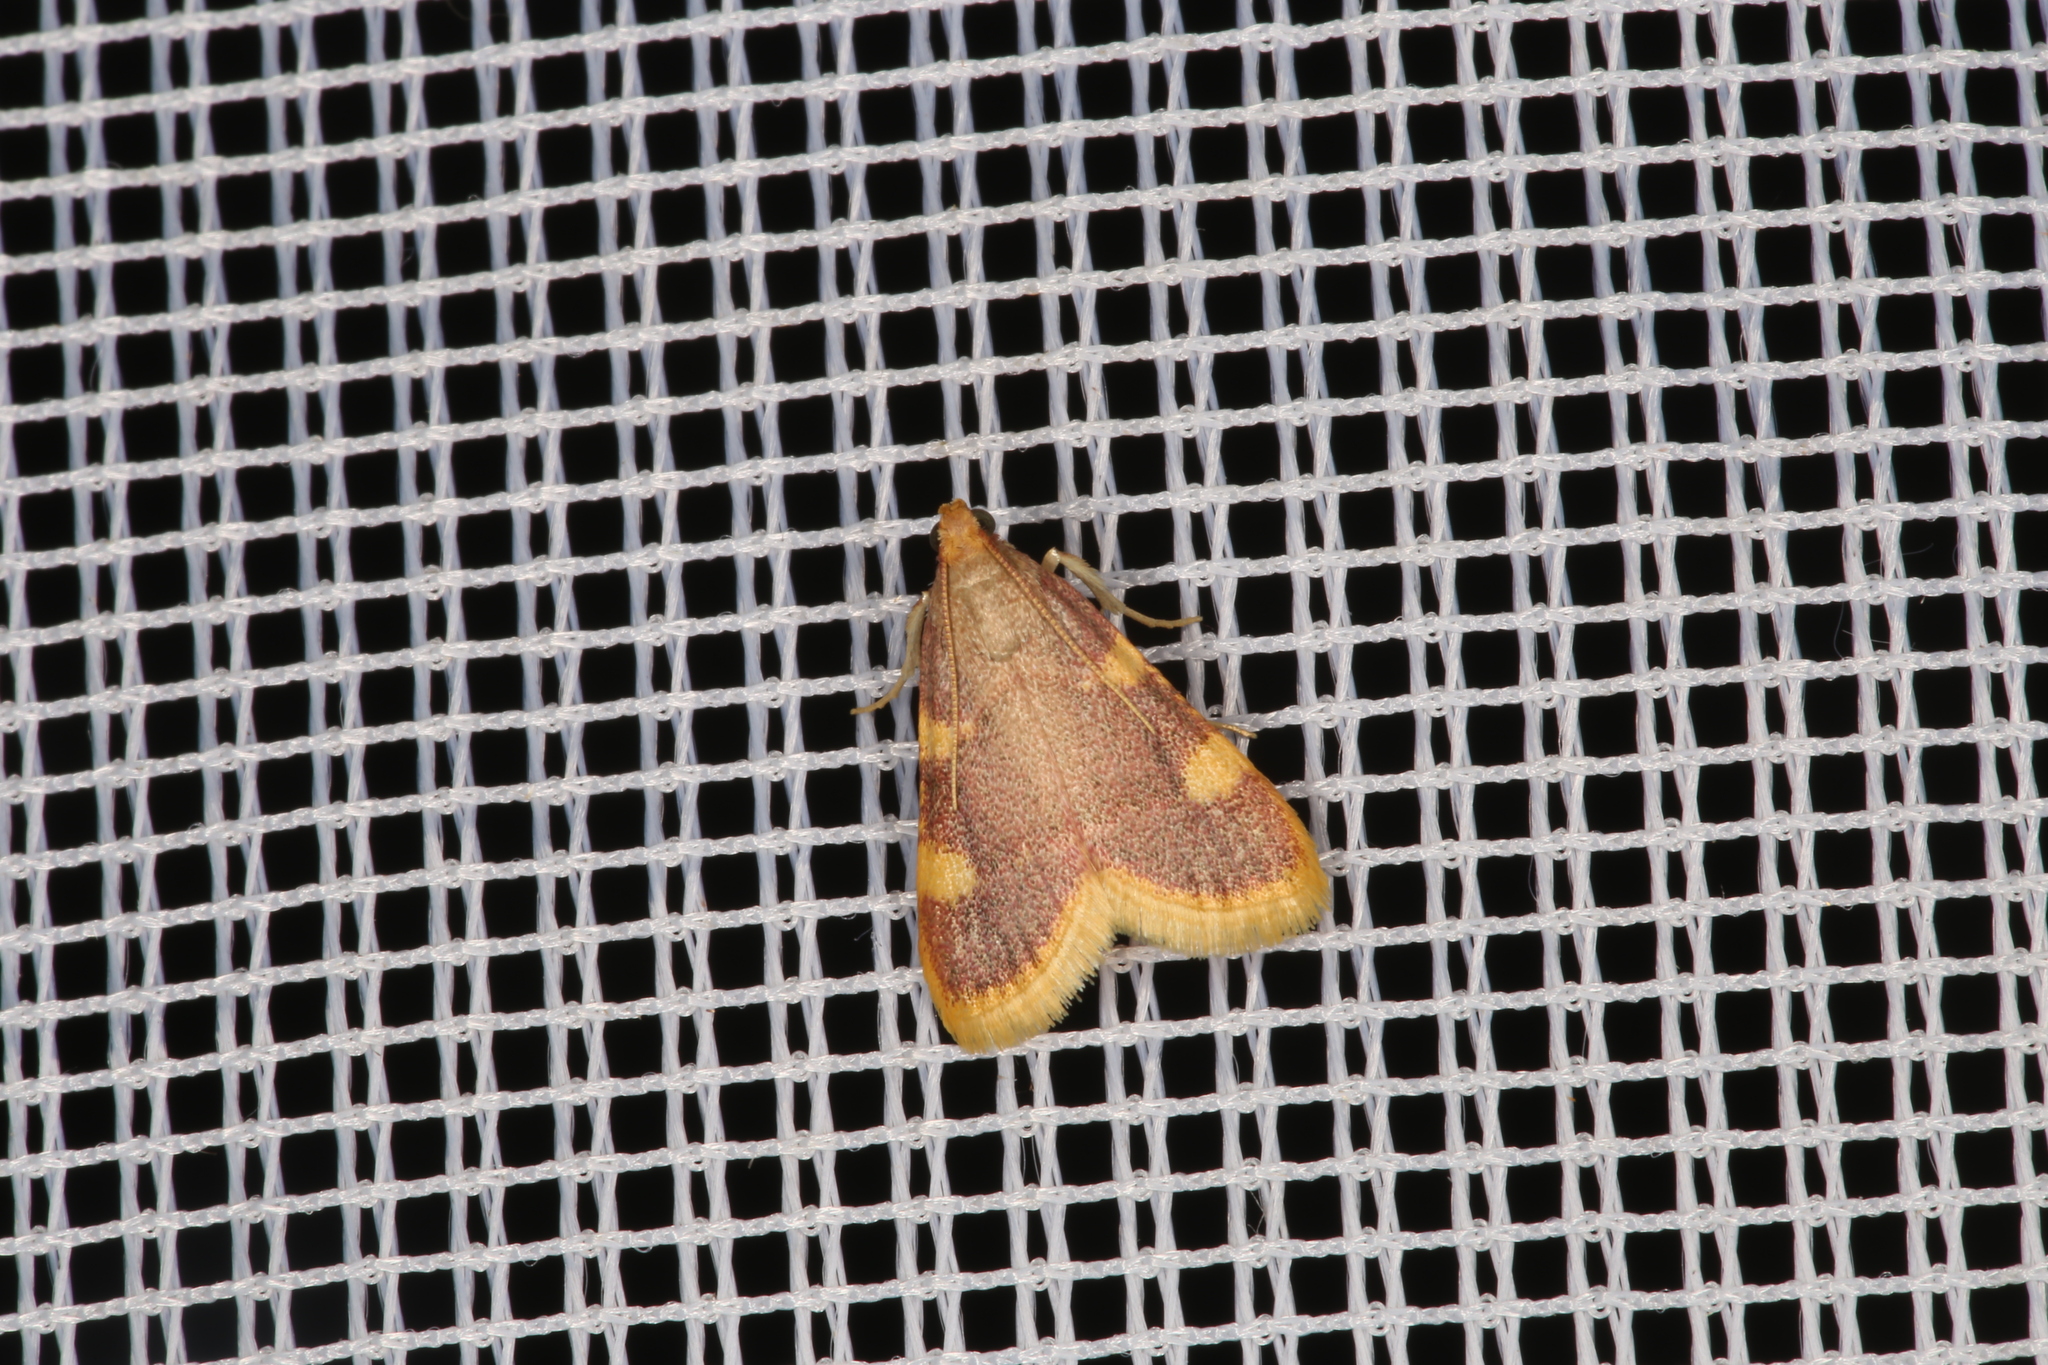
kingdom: Animalia
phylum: Arthropoda
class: Insecta
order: Lepidoptera
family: Pyralidae
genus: Hypsopygia
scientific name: Hypsopygia costalis
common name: Gold triangle
